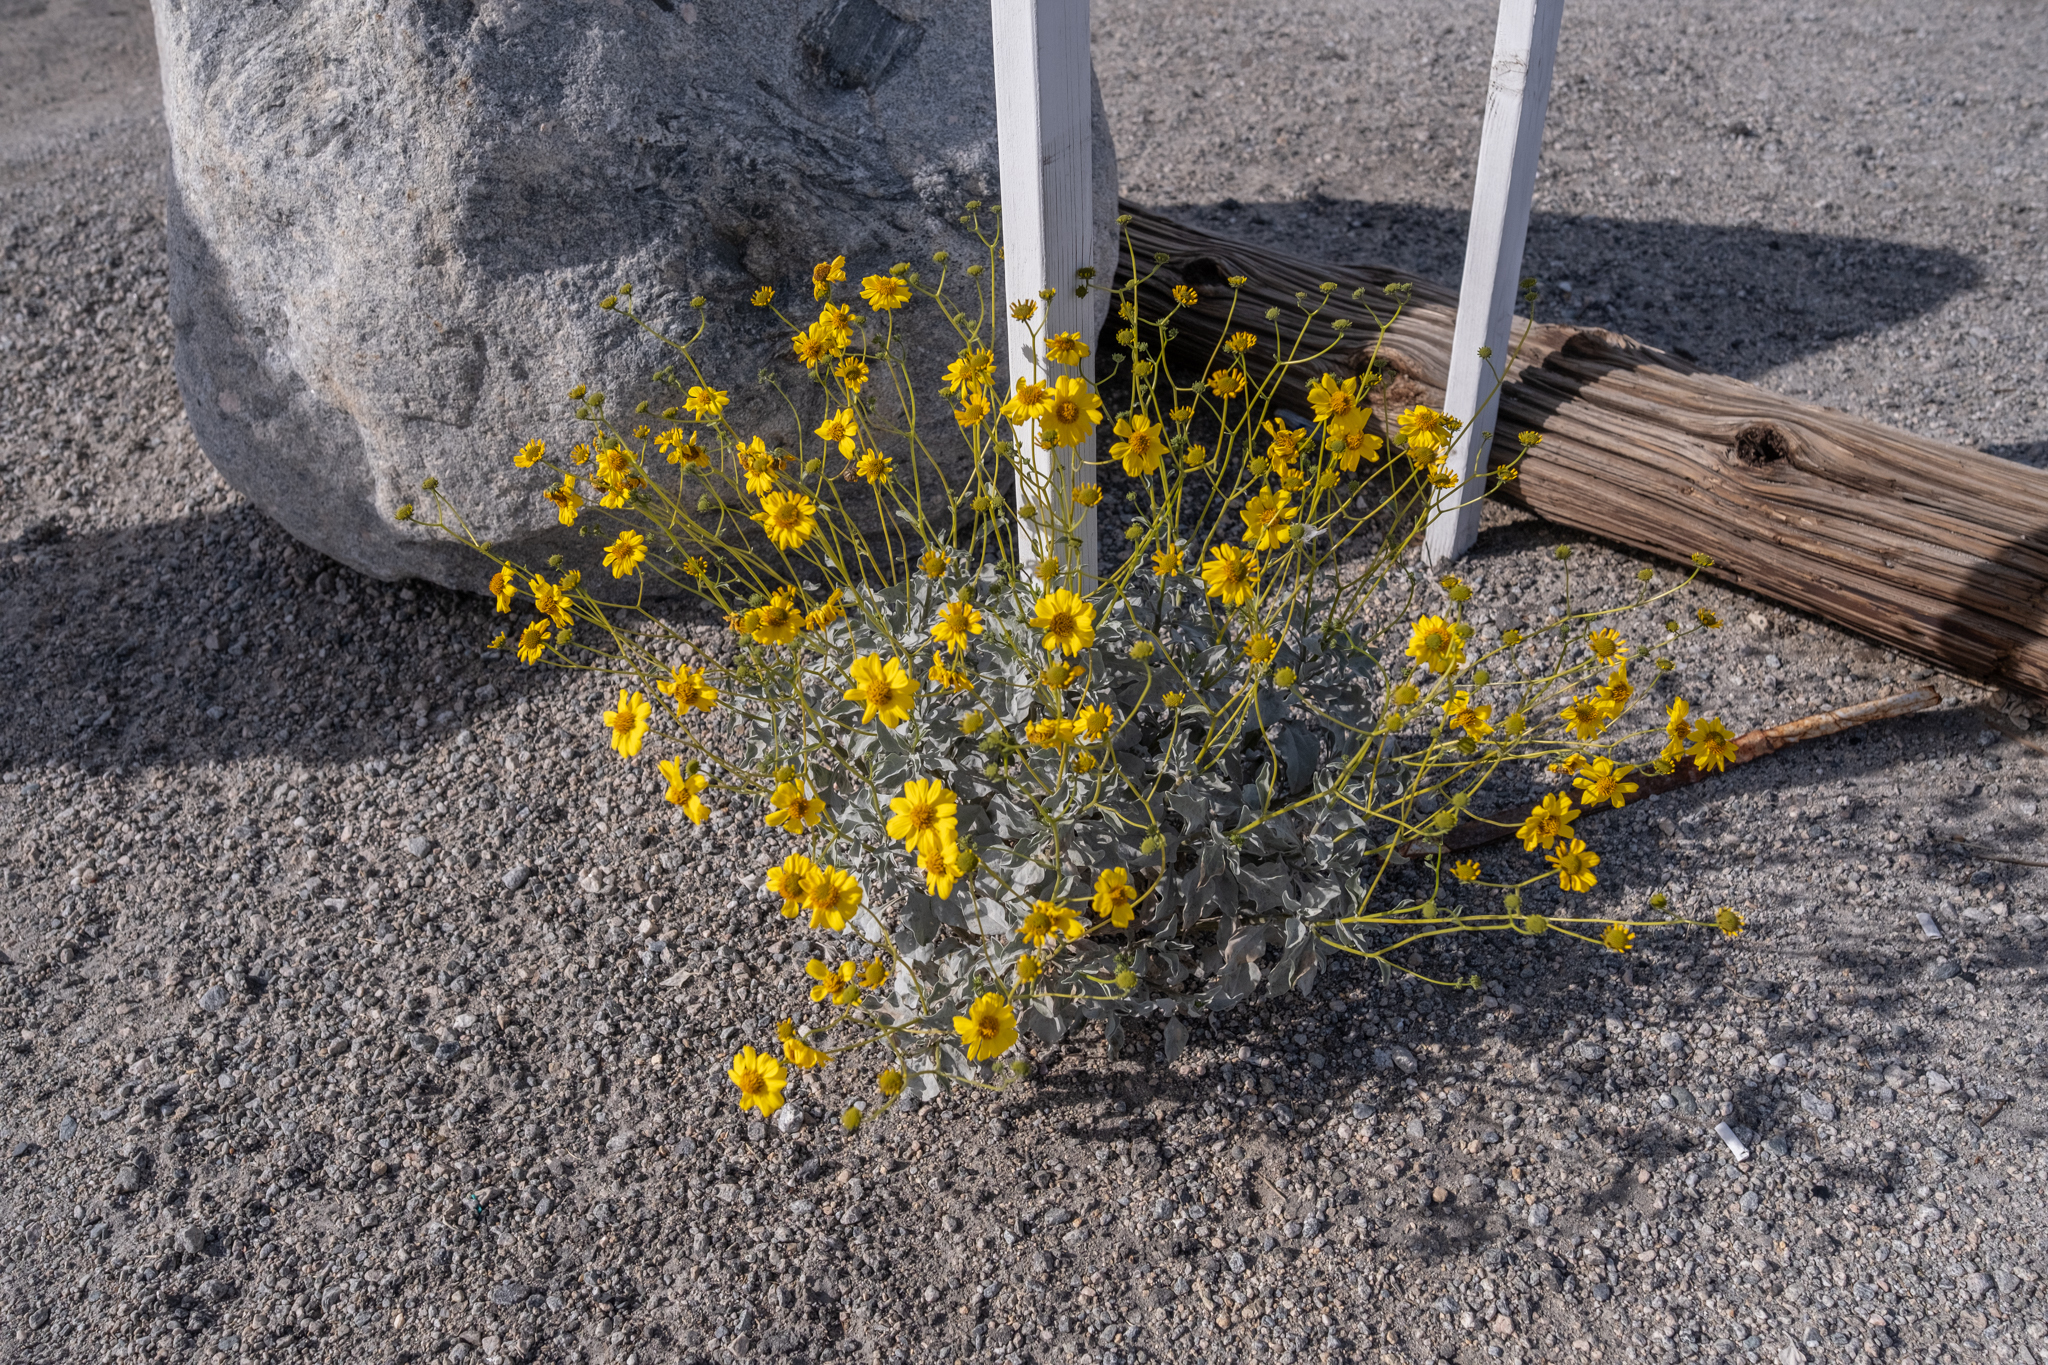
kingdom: Plantae
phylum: Tracheophyta
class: Magnoliopsida
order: Asterales
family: Asteraceae
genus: Encelia
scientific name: Encelia farinosa
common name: Brittlebush
